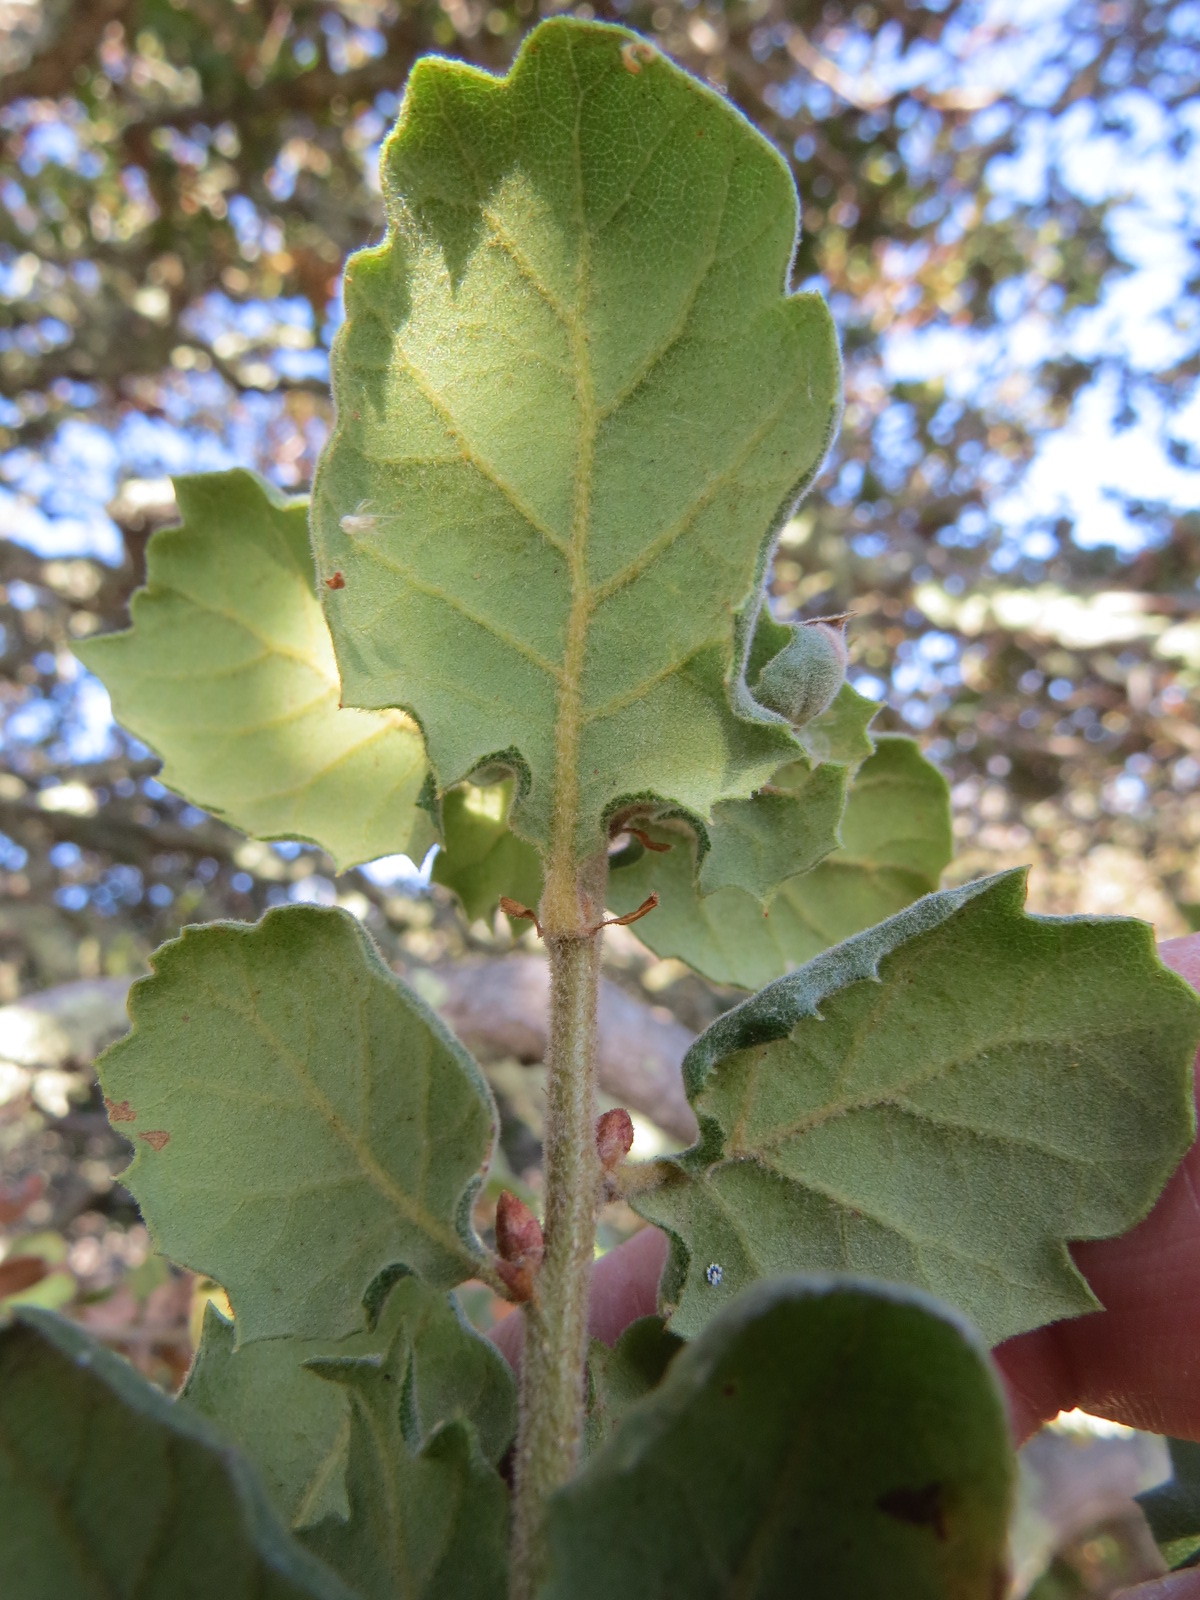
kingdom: Plantae
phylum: Tracheophyta
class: Magnoliopsida
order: Fagales
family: Fagaceae
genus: Quercus
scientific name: Quercus durata
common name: Leather oak
